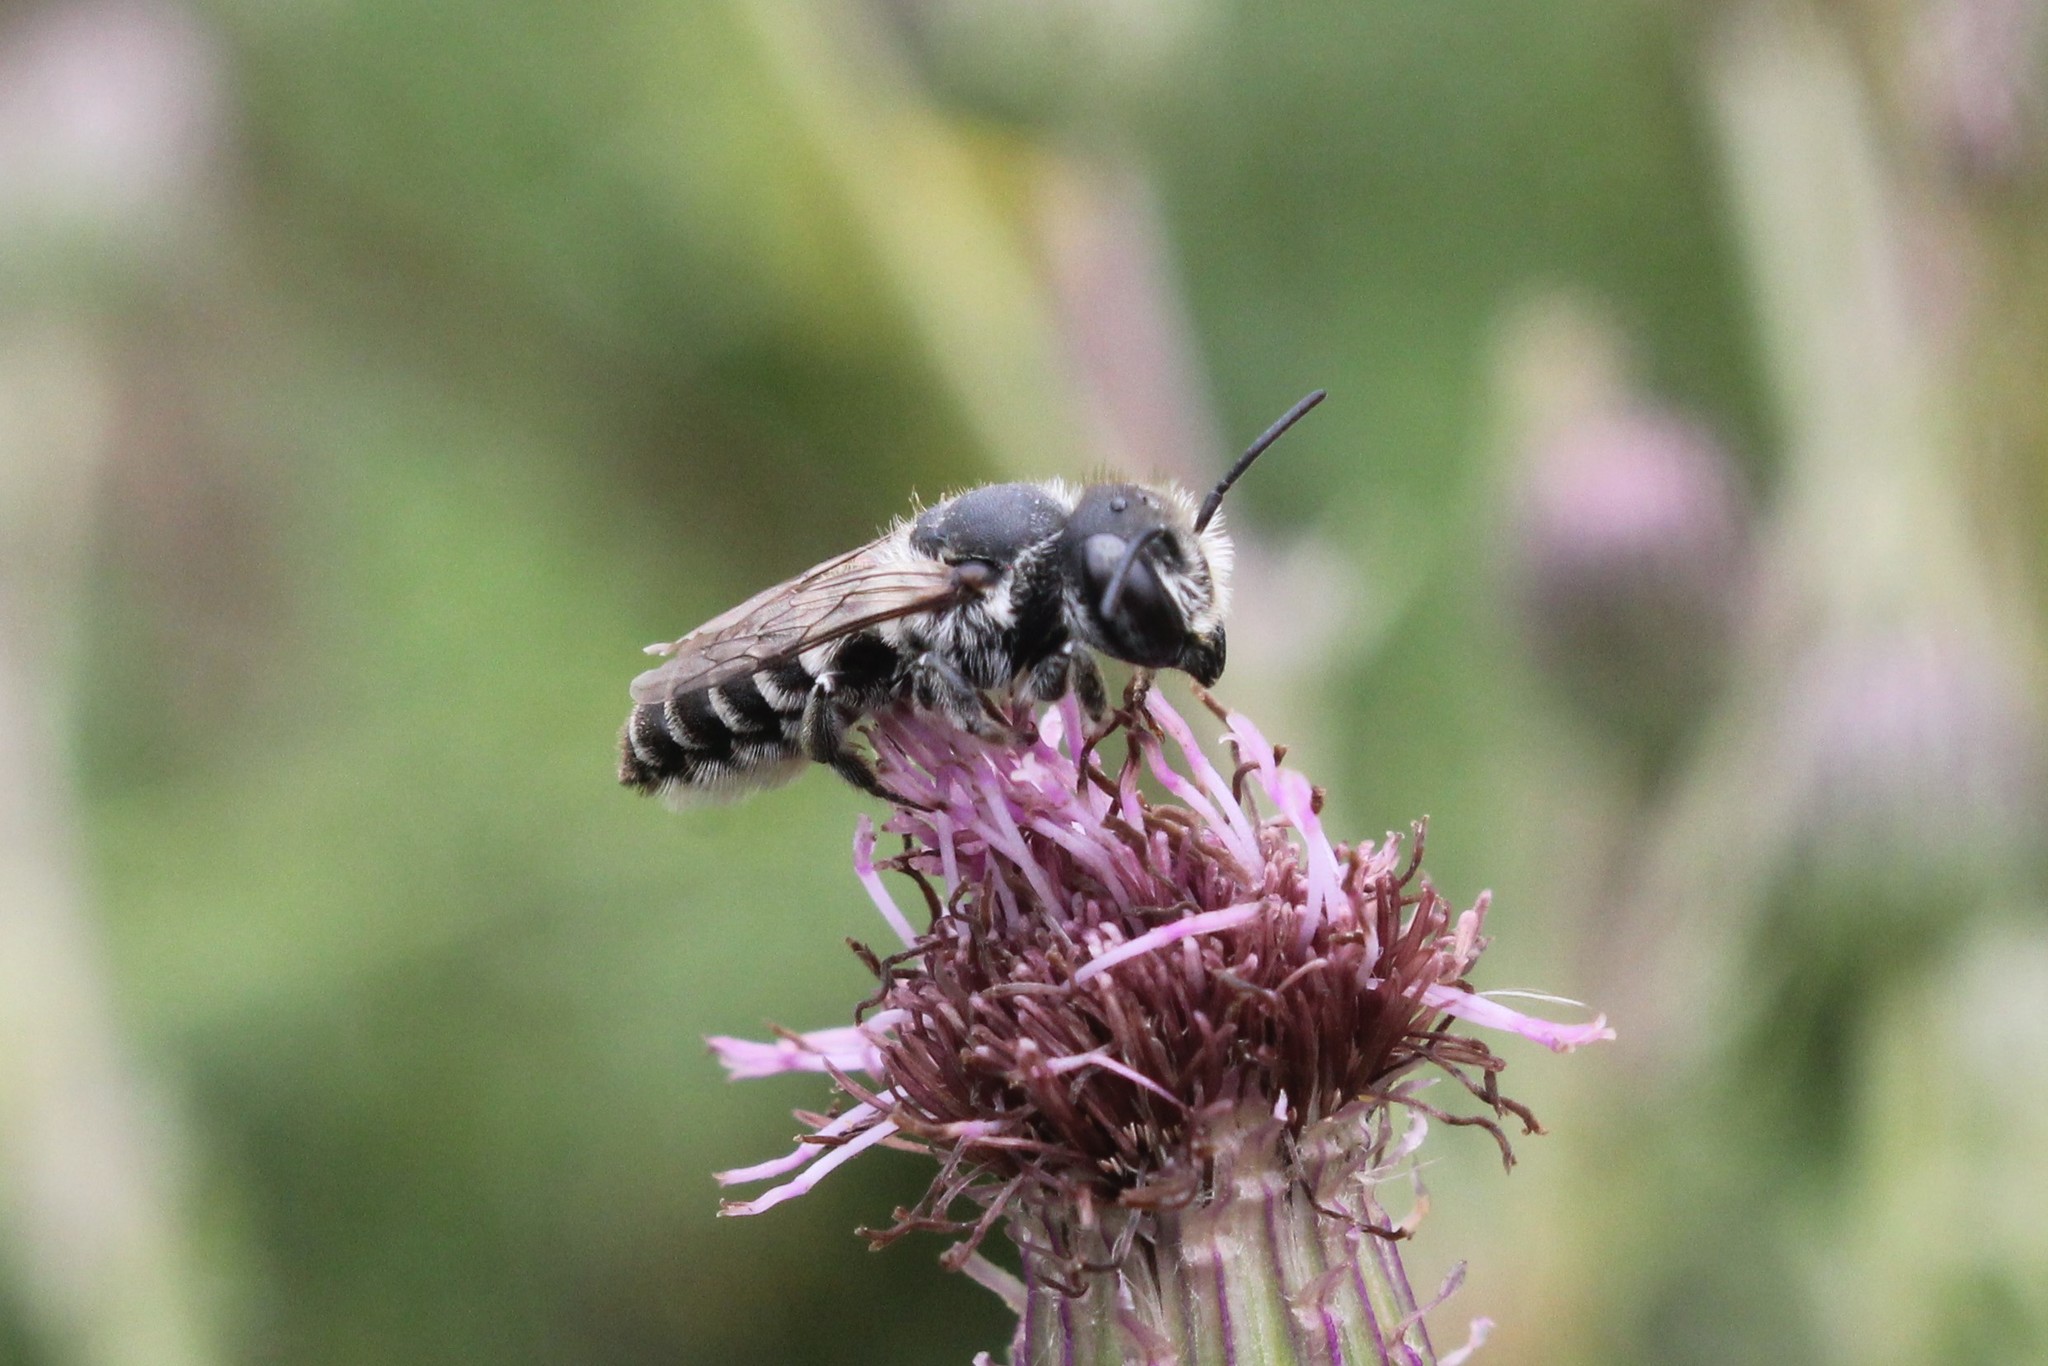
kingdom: Animalia
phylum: Arthropoda
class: Insecta
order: Hymenoptera
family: Megachilidae
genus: Megachile
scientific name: Megachile rotundata
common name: Alfalfa leafcutting bee
